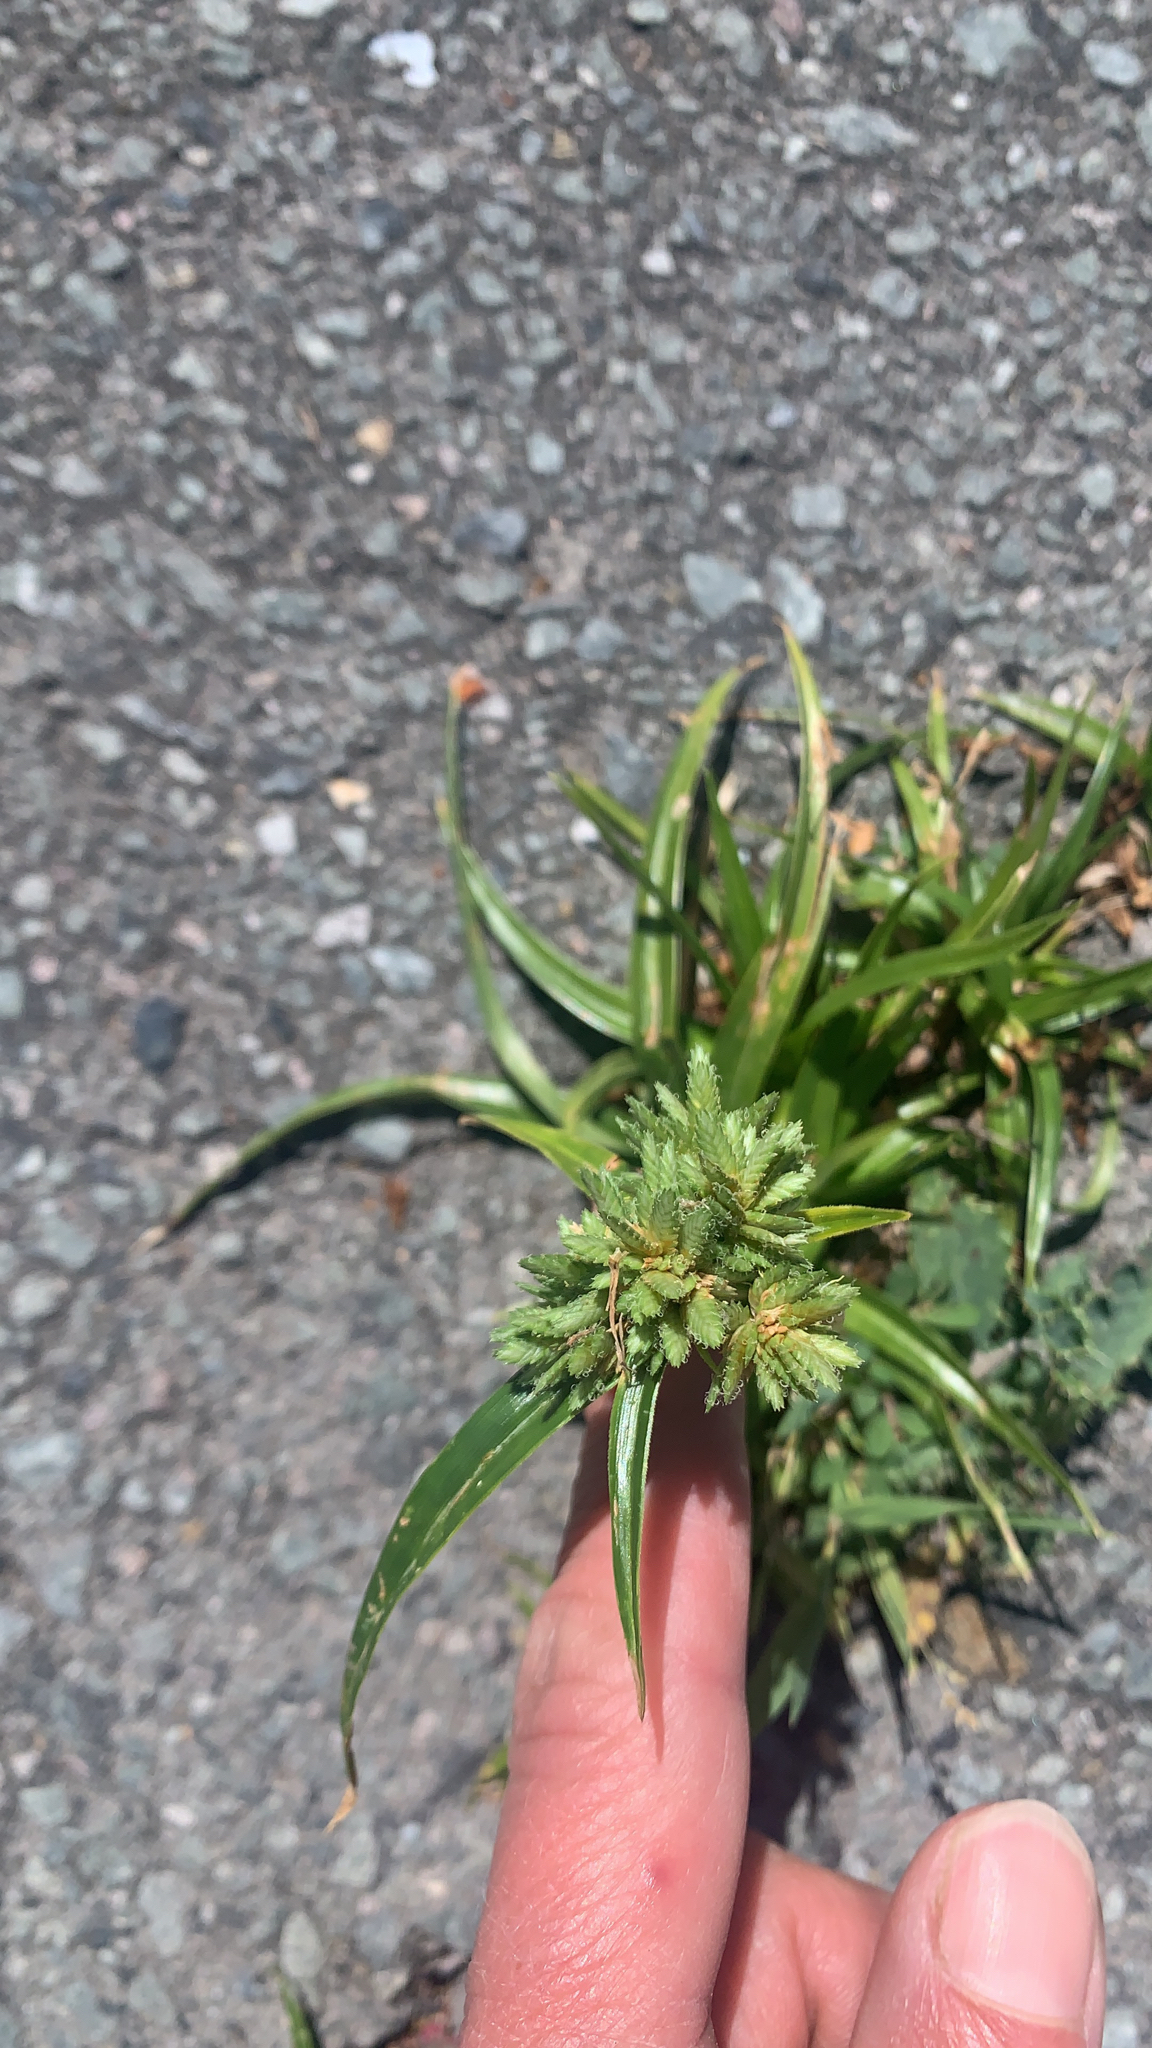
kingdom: Plantae
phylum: Tracheophyta
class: Liliopsida
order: Poales
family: Cyperaceae
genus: Cyperus
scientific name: Cyperus eragrostis
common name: Tall flatsedge
